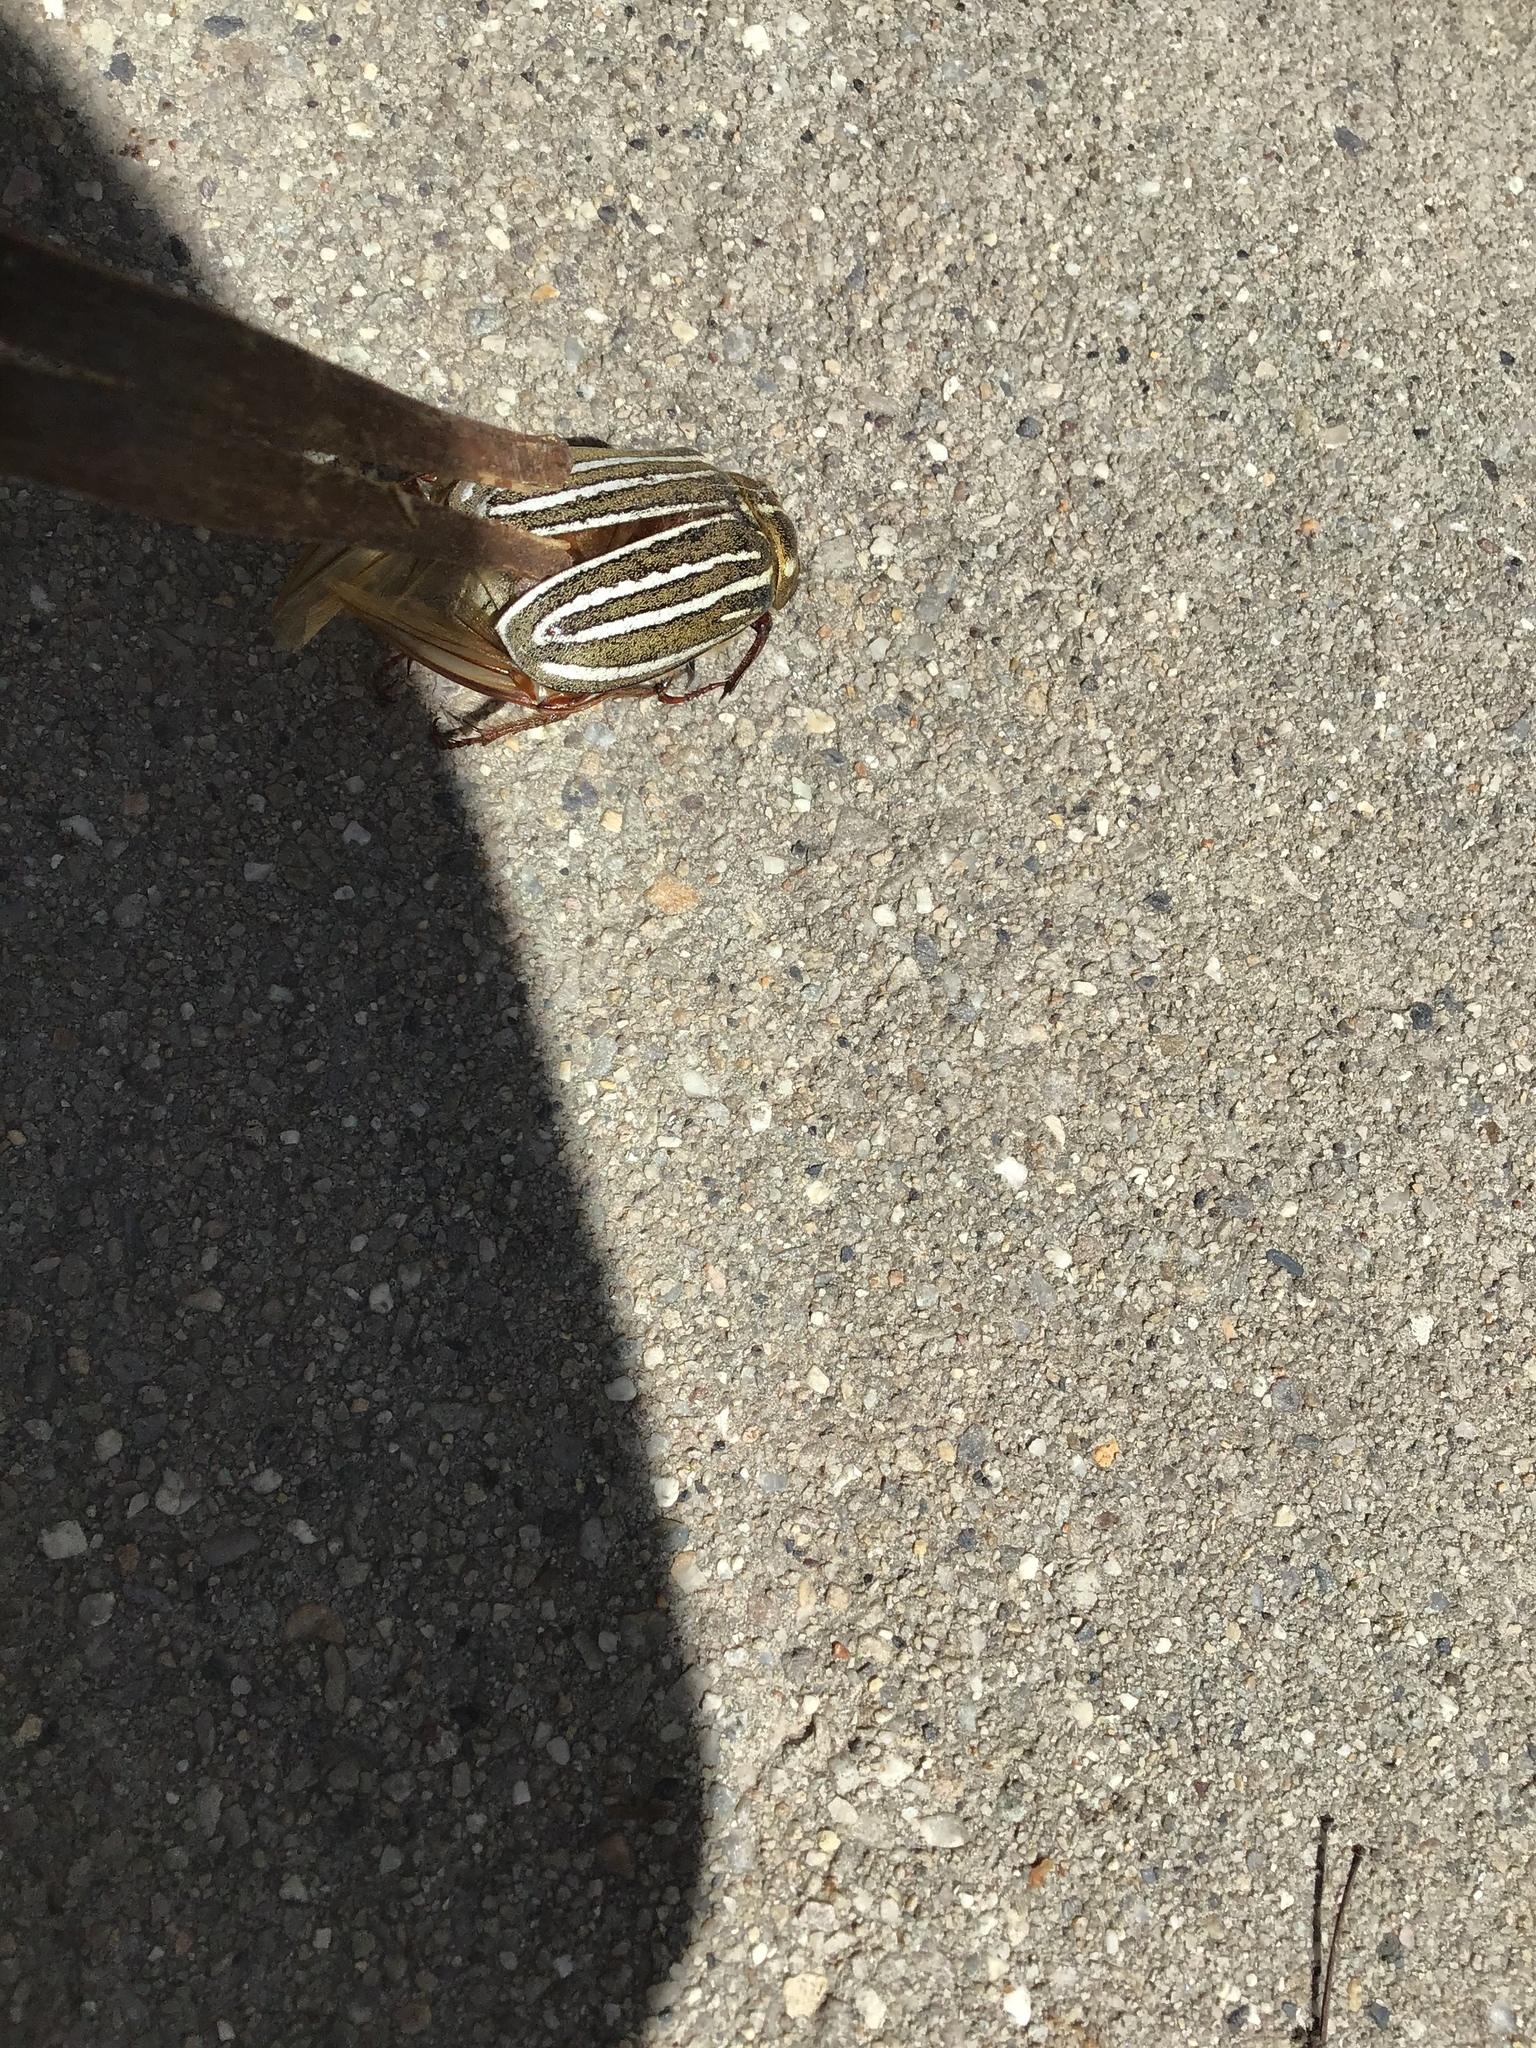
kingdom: Animalia
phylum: Arthropoda
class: Insecta
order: Coleoptera
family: Scarabaeidae
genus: Polyphylla
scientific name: Polyphylla decemlineata
